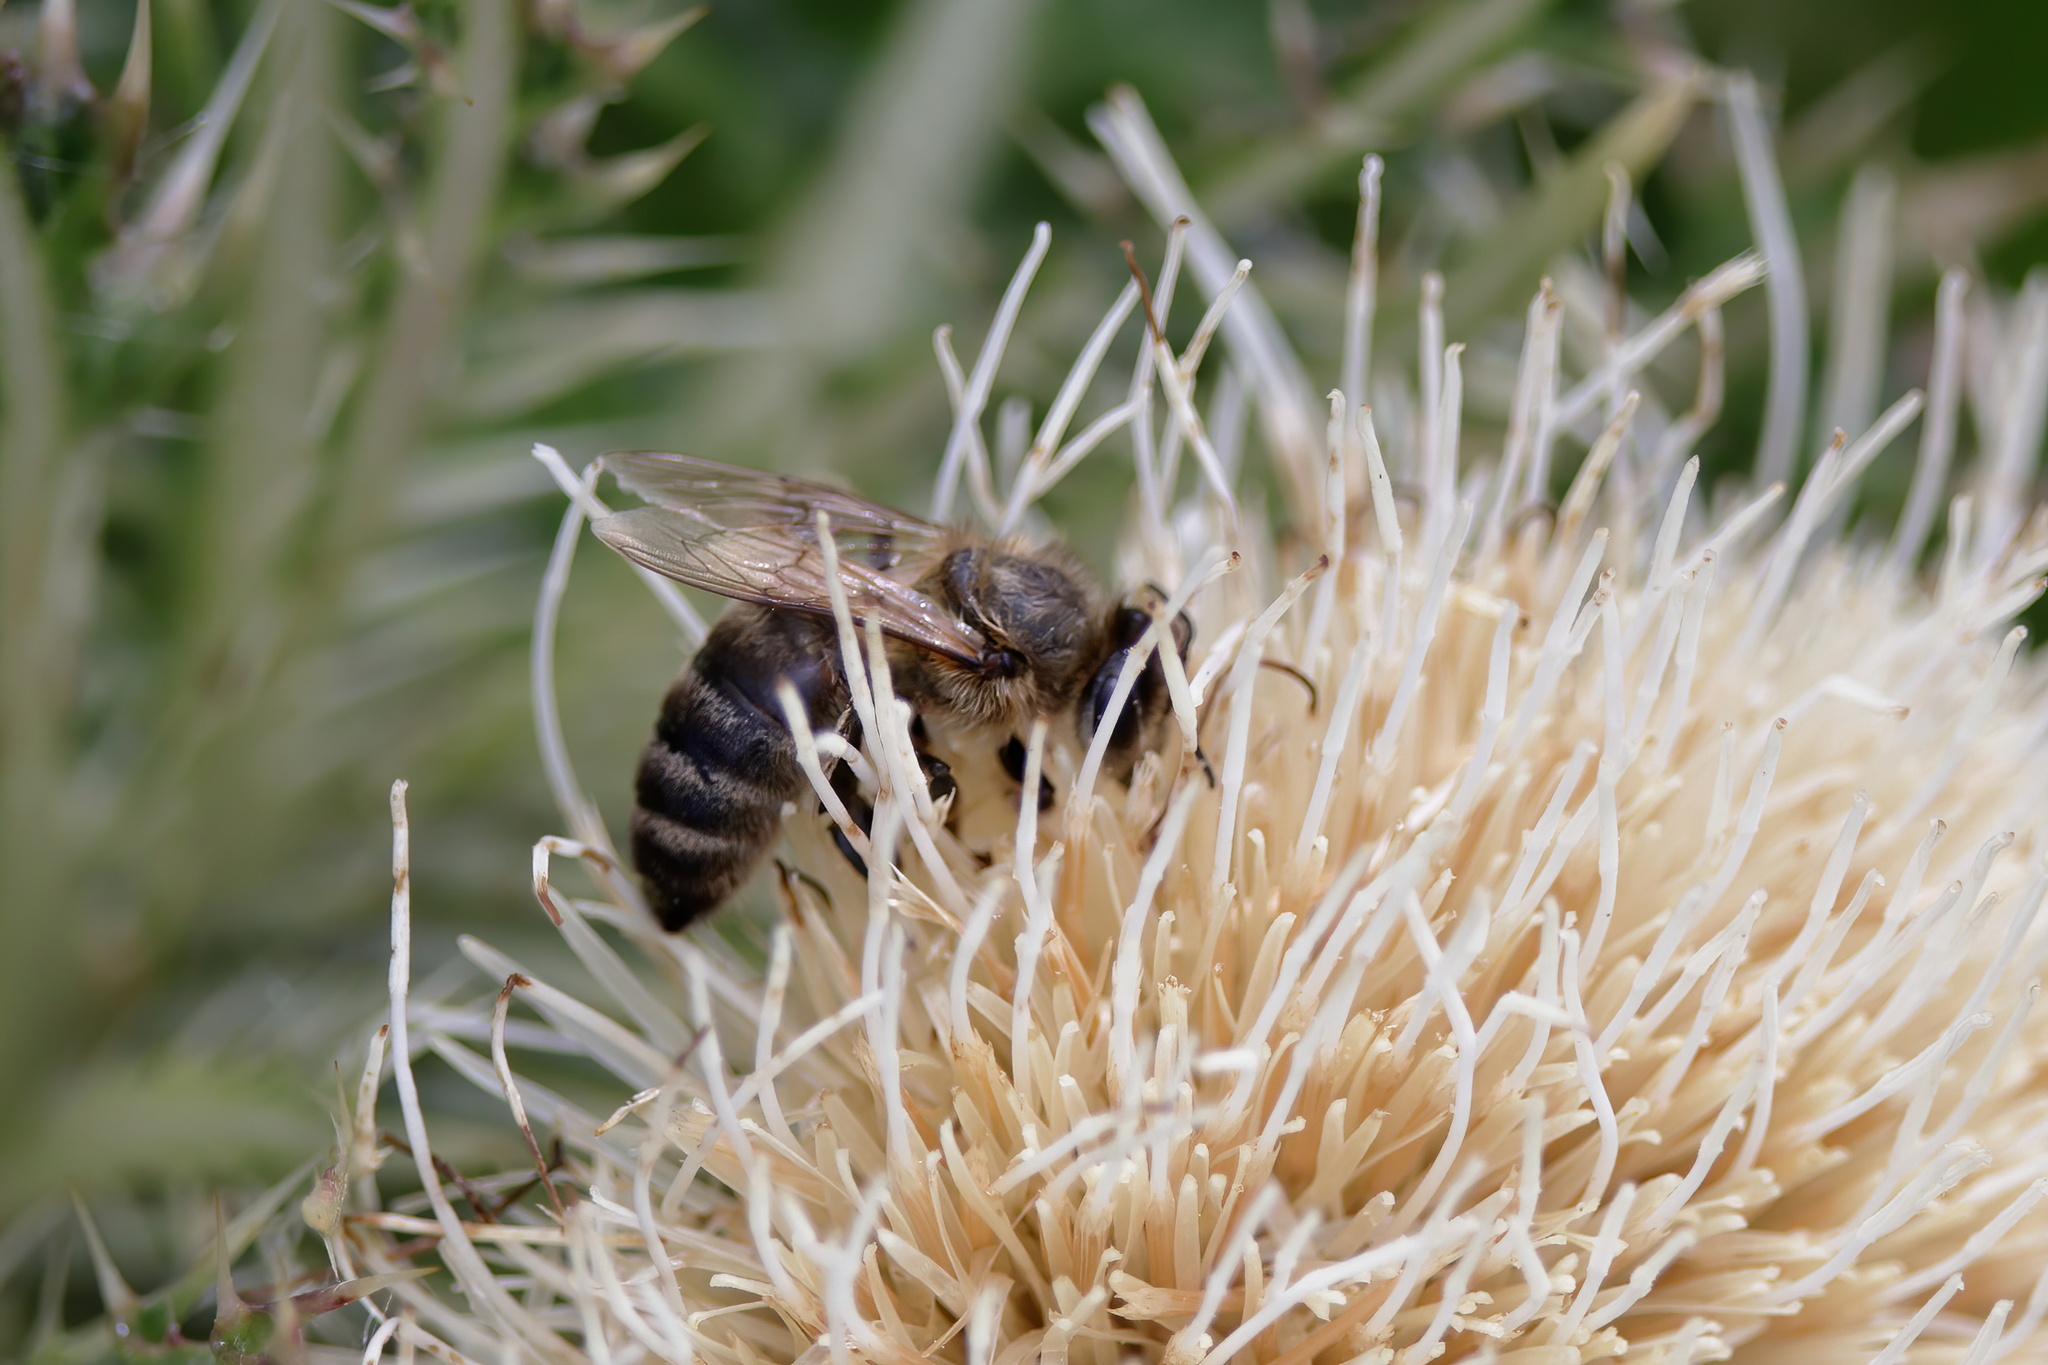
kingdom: Animalia
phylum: Arthropoda
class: Insecta
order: Hymenoptera
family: Apidae
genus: Apis
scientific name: Apis mellifera
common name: Honey bee
